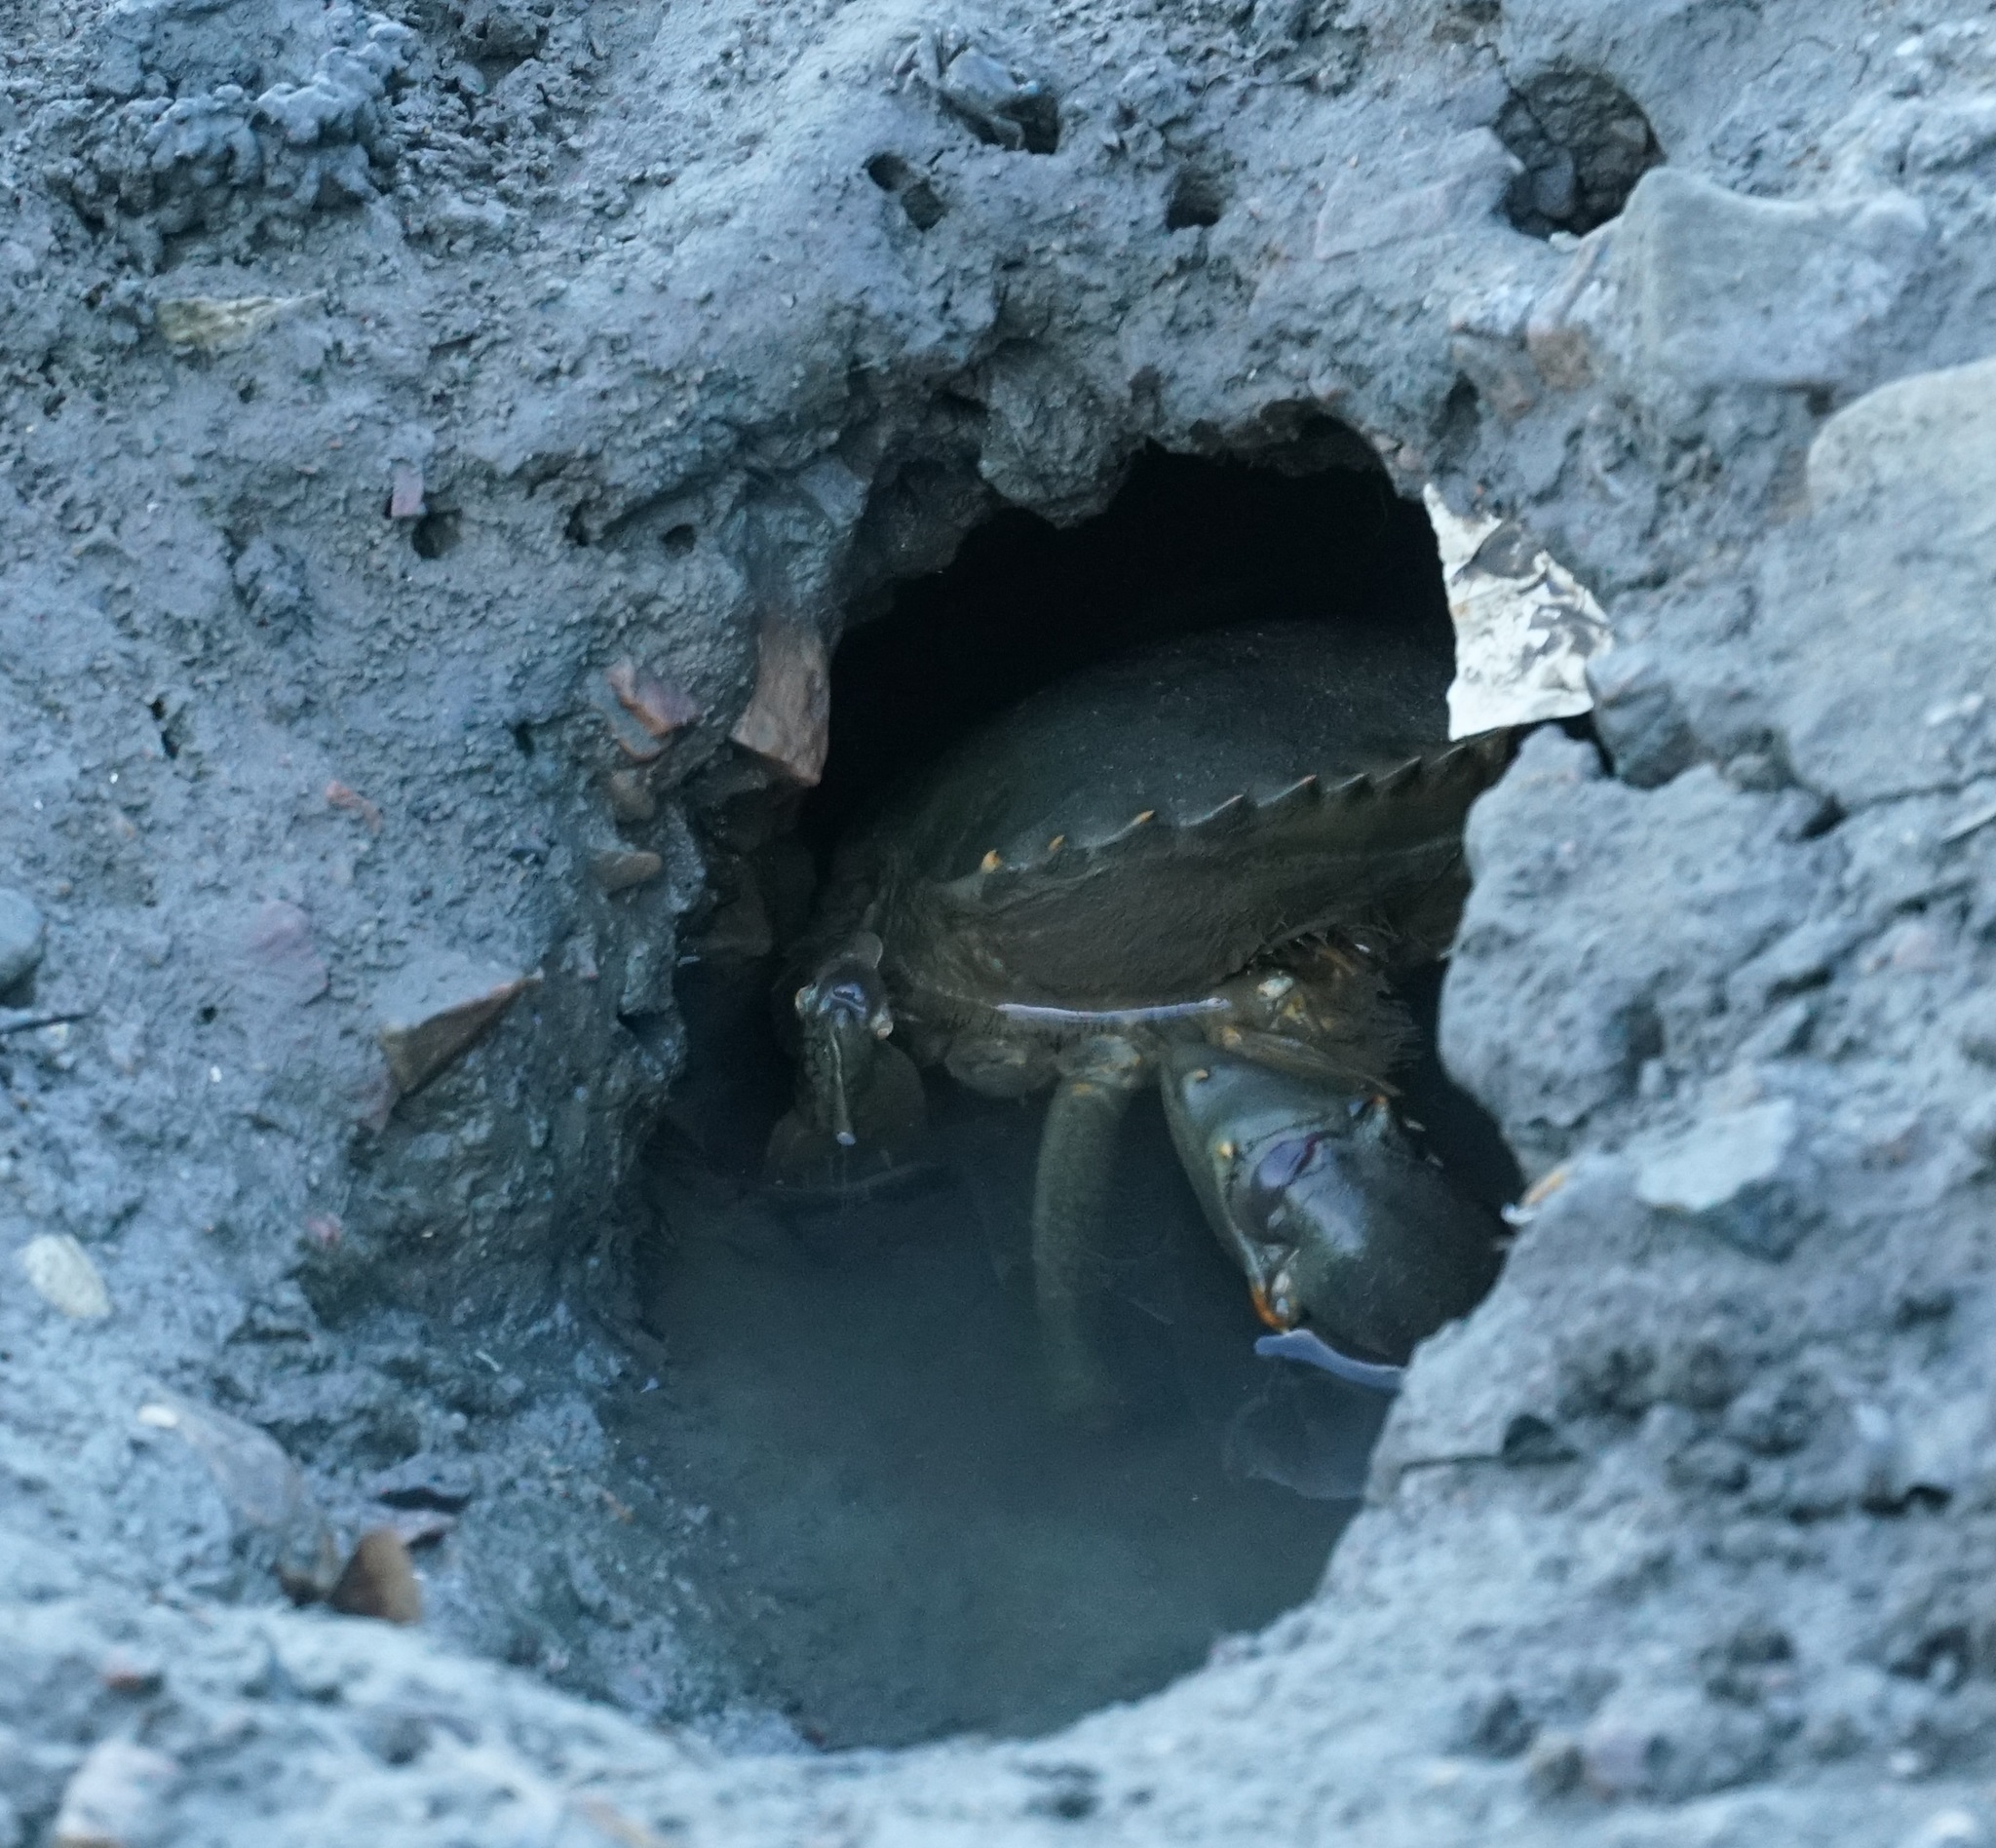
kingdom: Animalia
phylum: Arthropoda
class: Malacostraca
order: Decapoda
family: Portunidae
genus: Scylla
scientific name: Scylla serrata
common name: Giant mud crab
